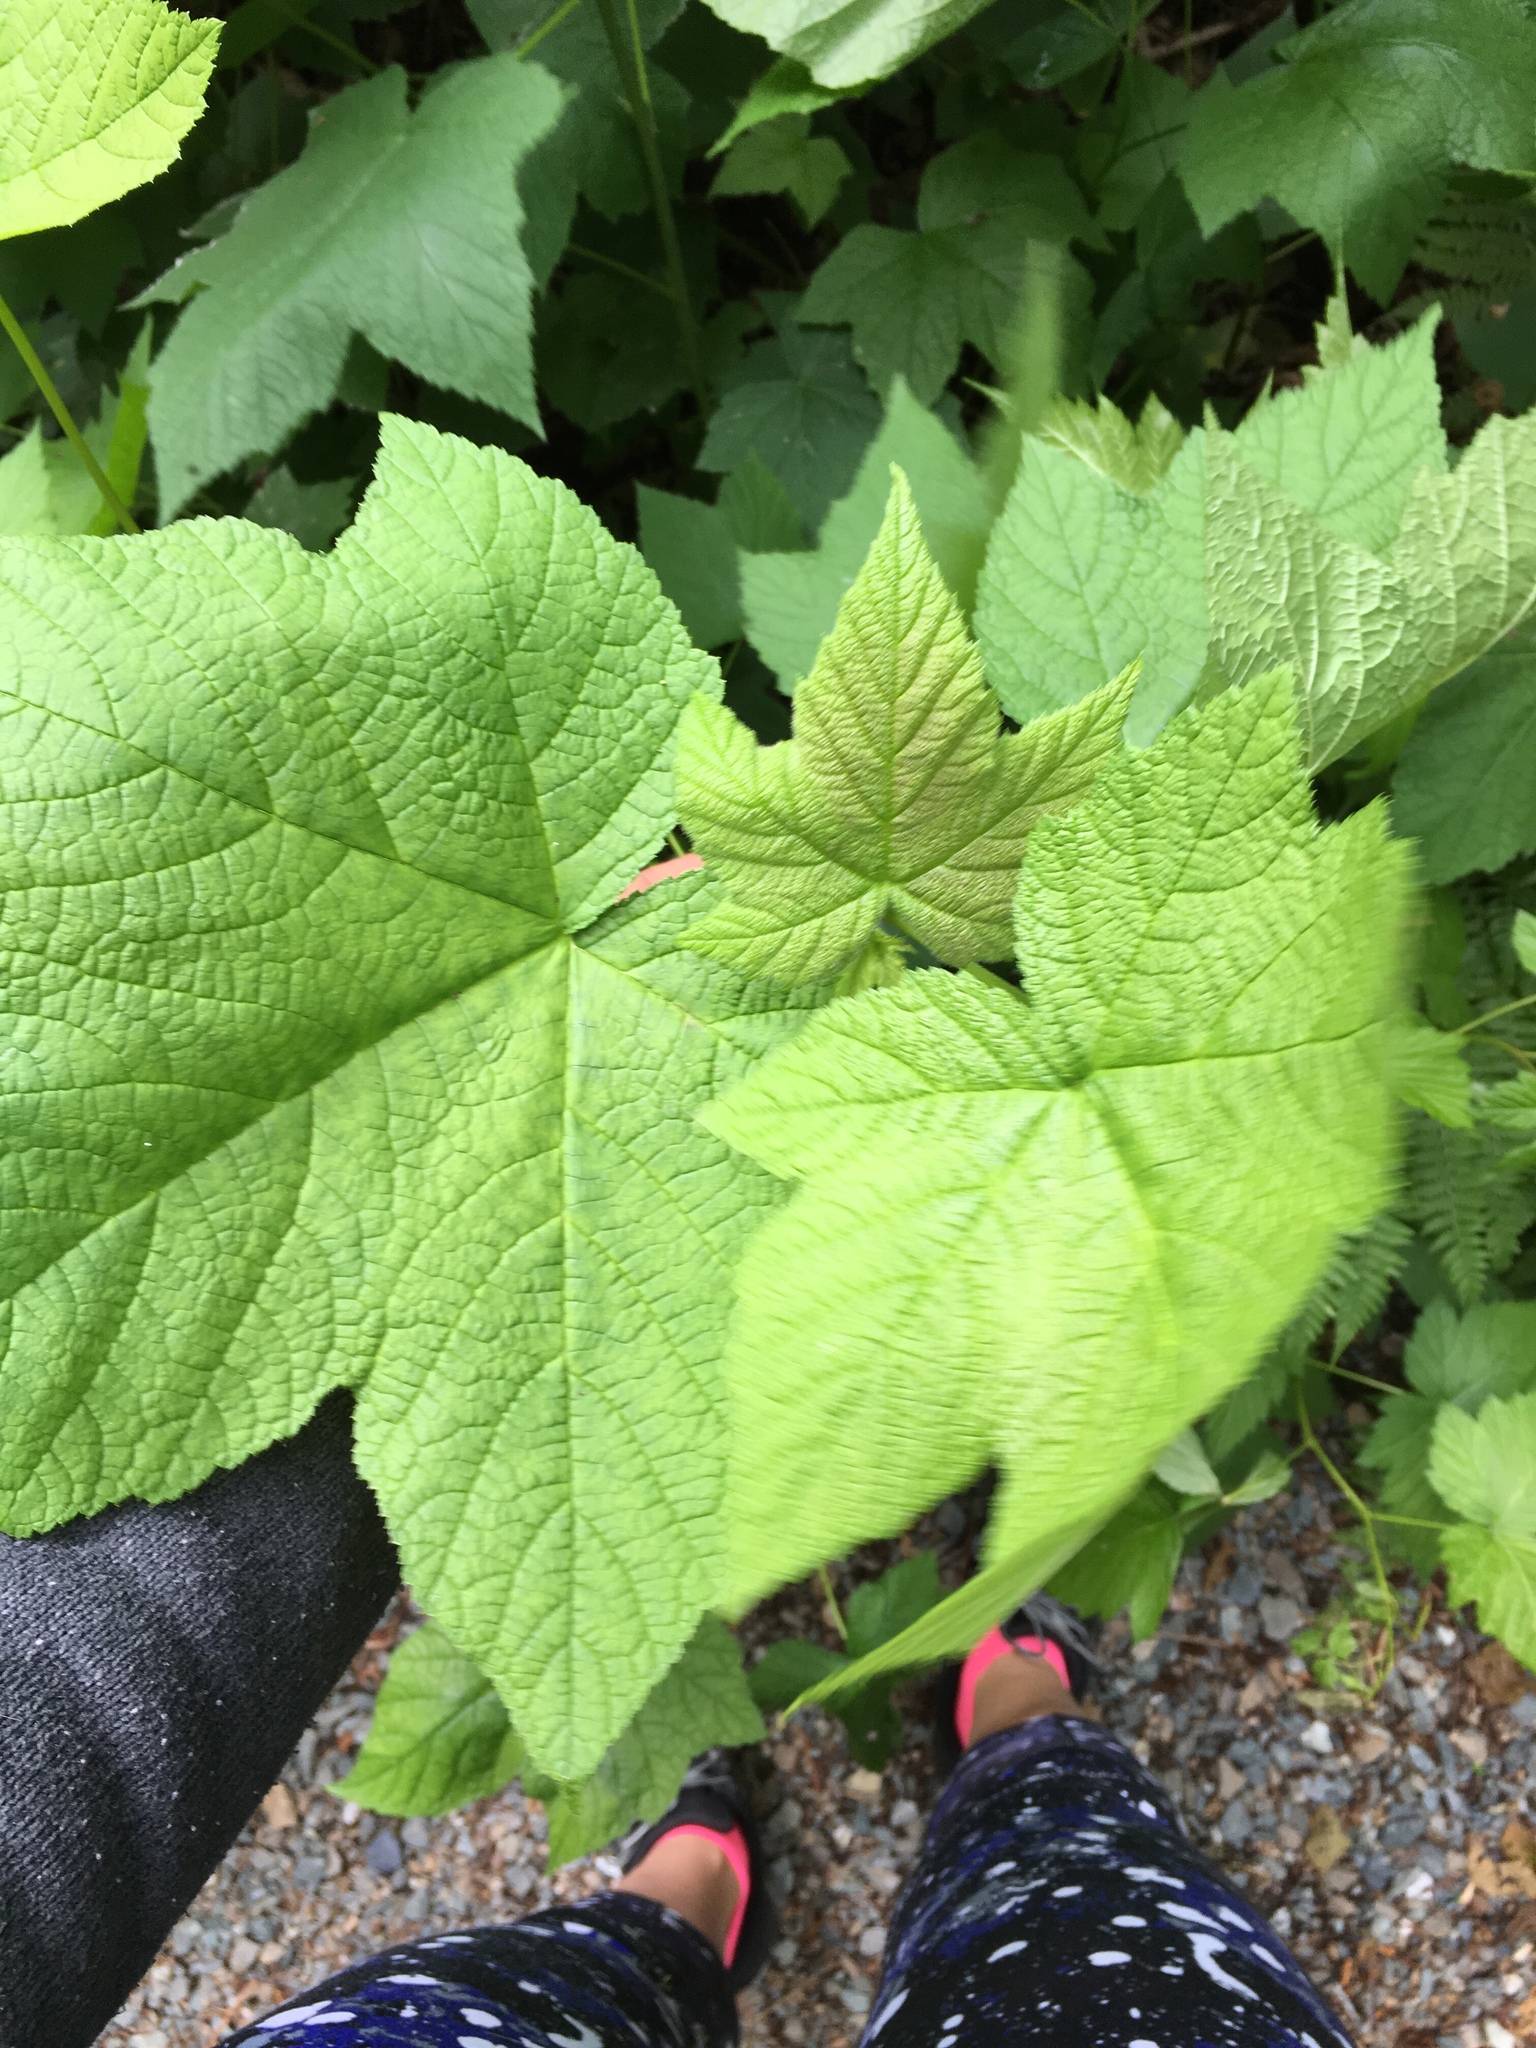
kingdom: Plantae
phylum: Tracheophyta
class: Magnoliopsida
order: Rosales
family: Rosaceae
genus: Rubus
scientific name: Rubus parviflorus
